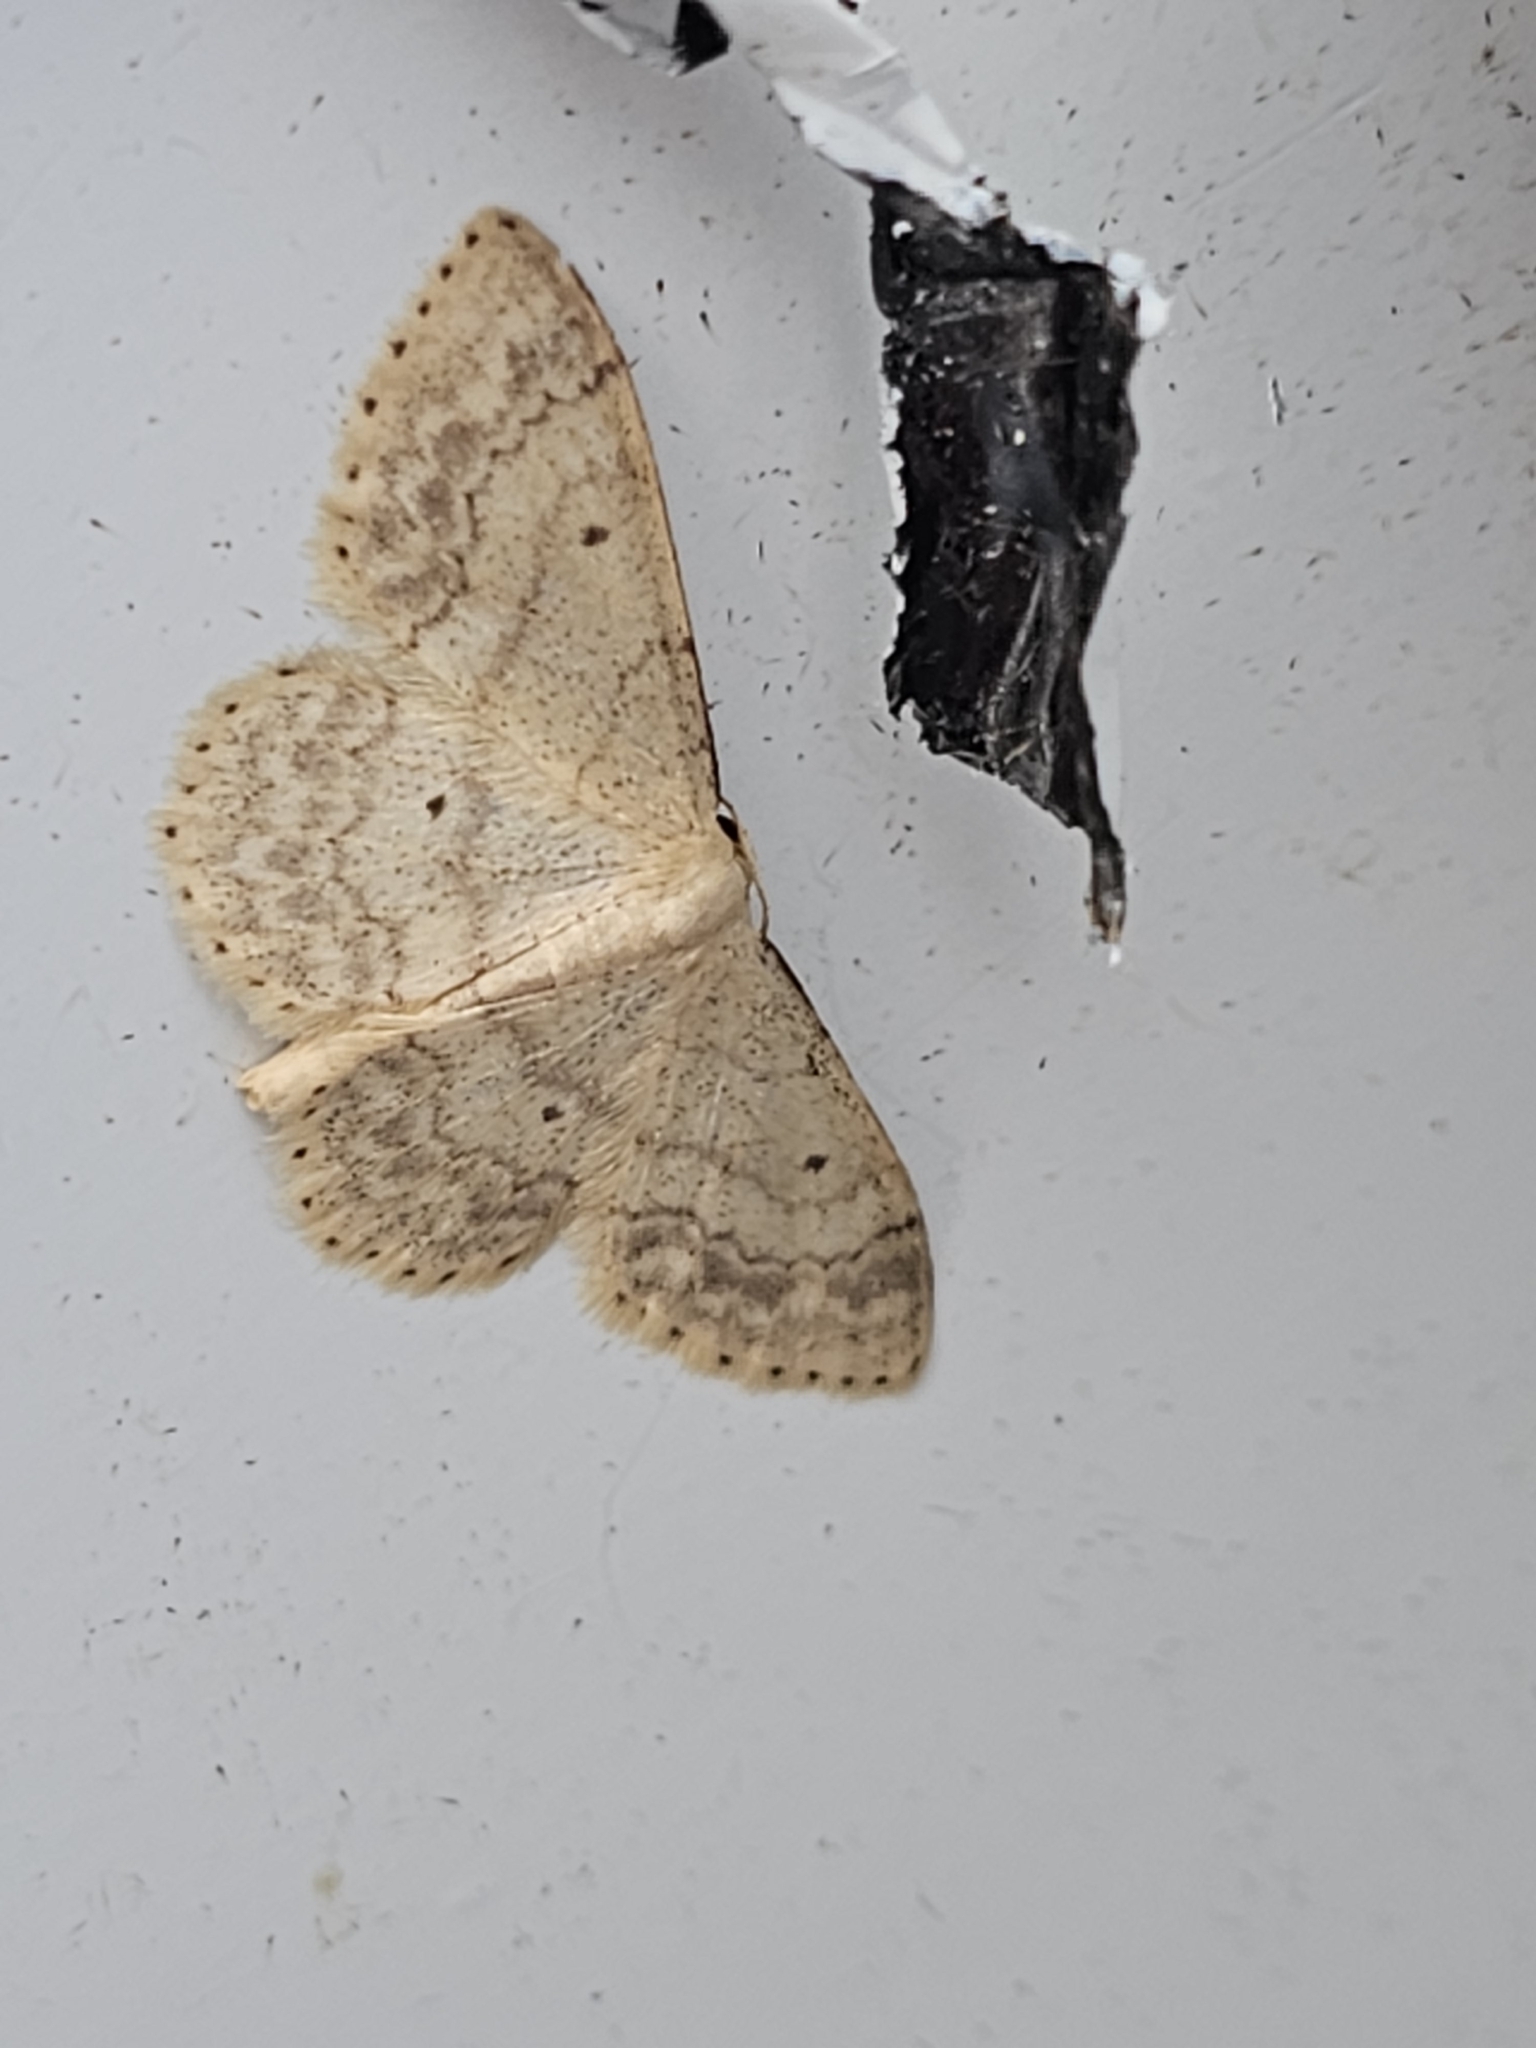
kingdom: Animalia
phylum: Arthropoda
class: Insecta
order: Lepidoptera
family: Geometridae
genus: Idaea
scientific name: Idaea biselata
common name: Small fan-footed wave
